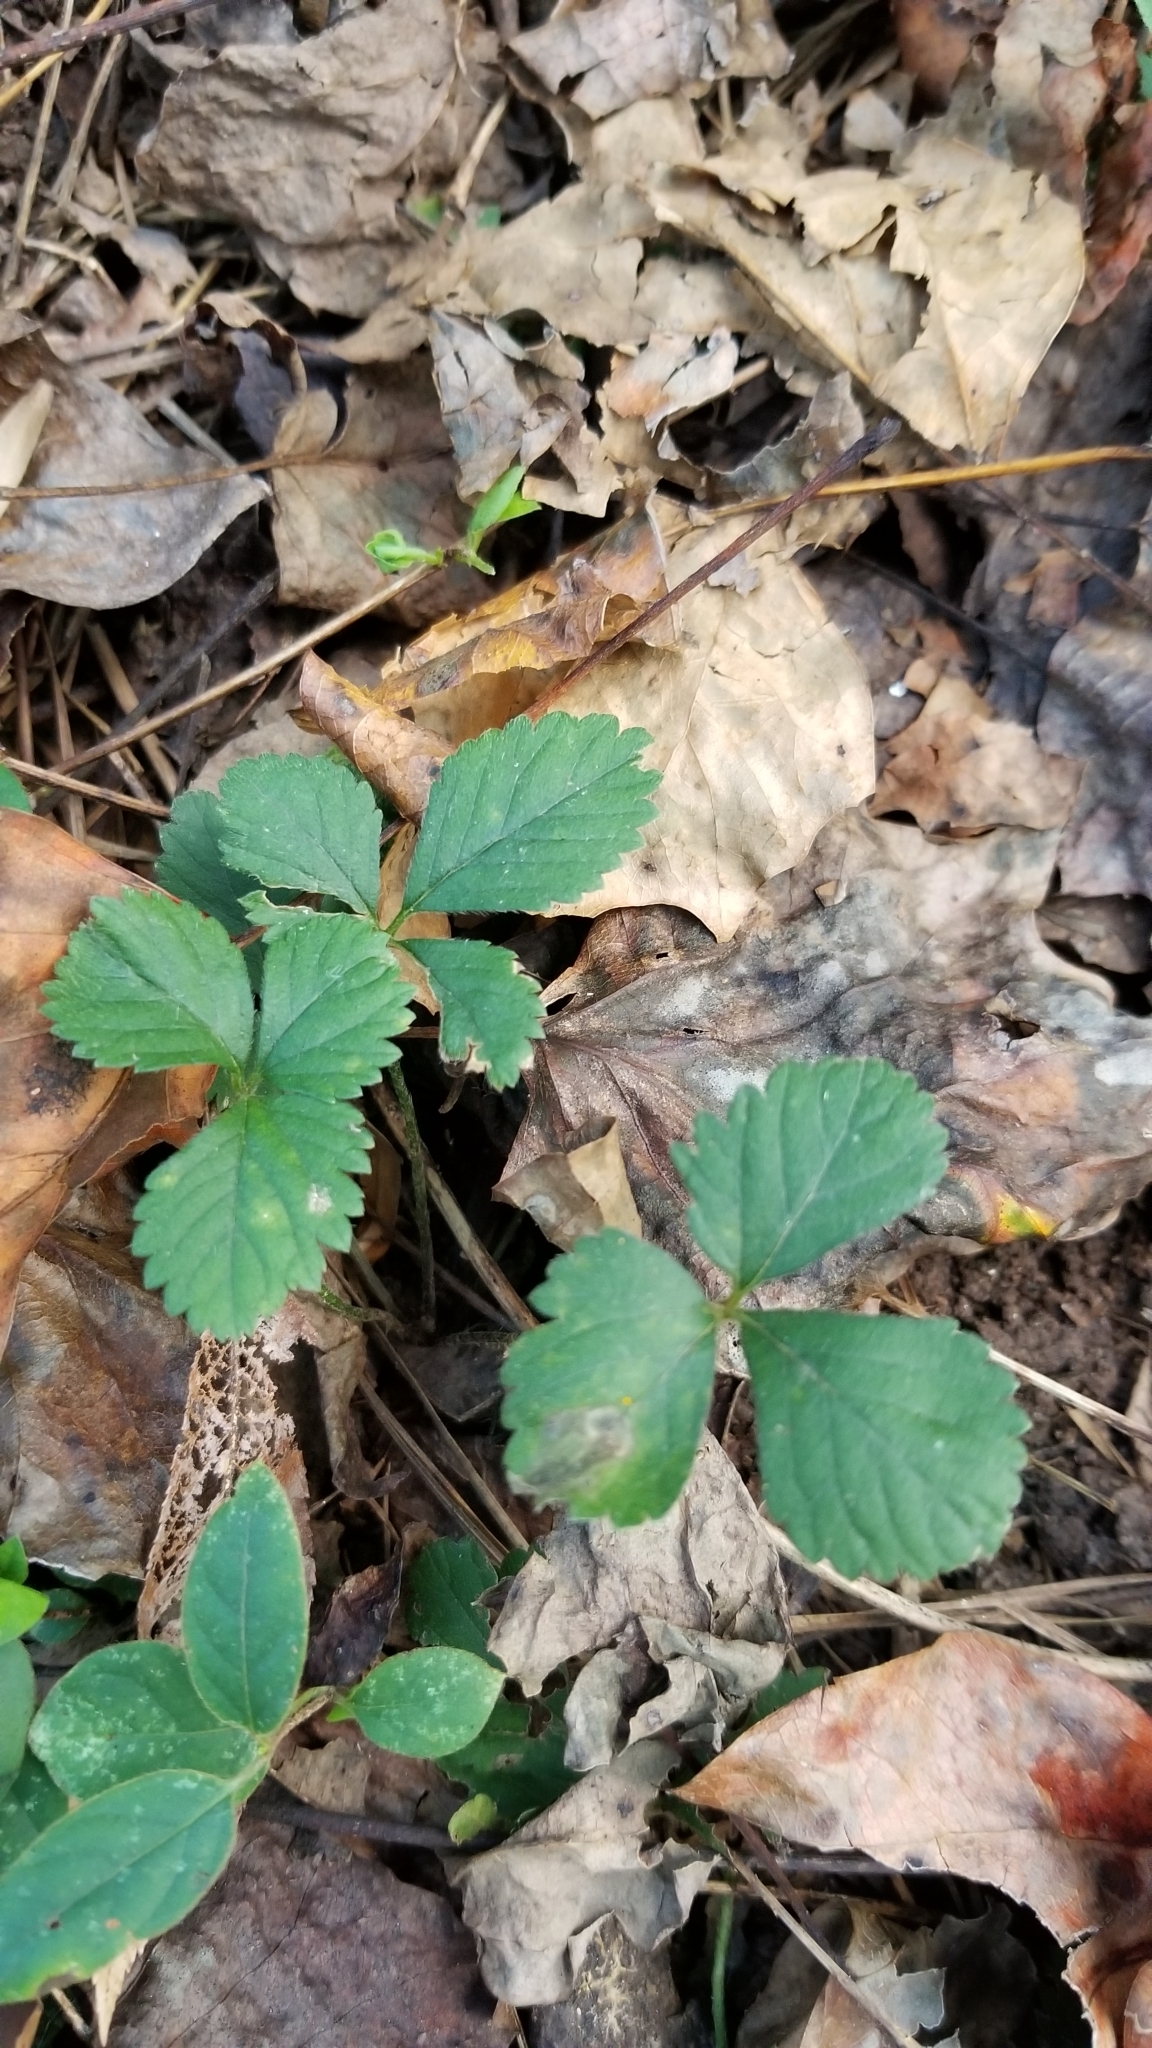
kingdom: Plantae
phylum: Tracheophyta
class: Magnoliopsida
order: Rosales
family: Rosaceae
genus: Potentilla
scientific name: Potentilla indica
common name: Yellow-flowered strawberry
